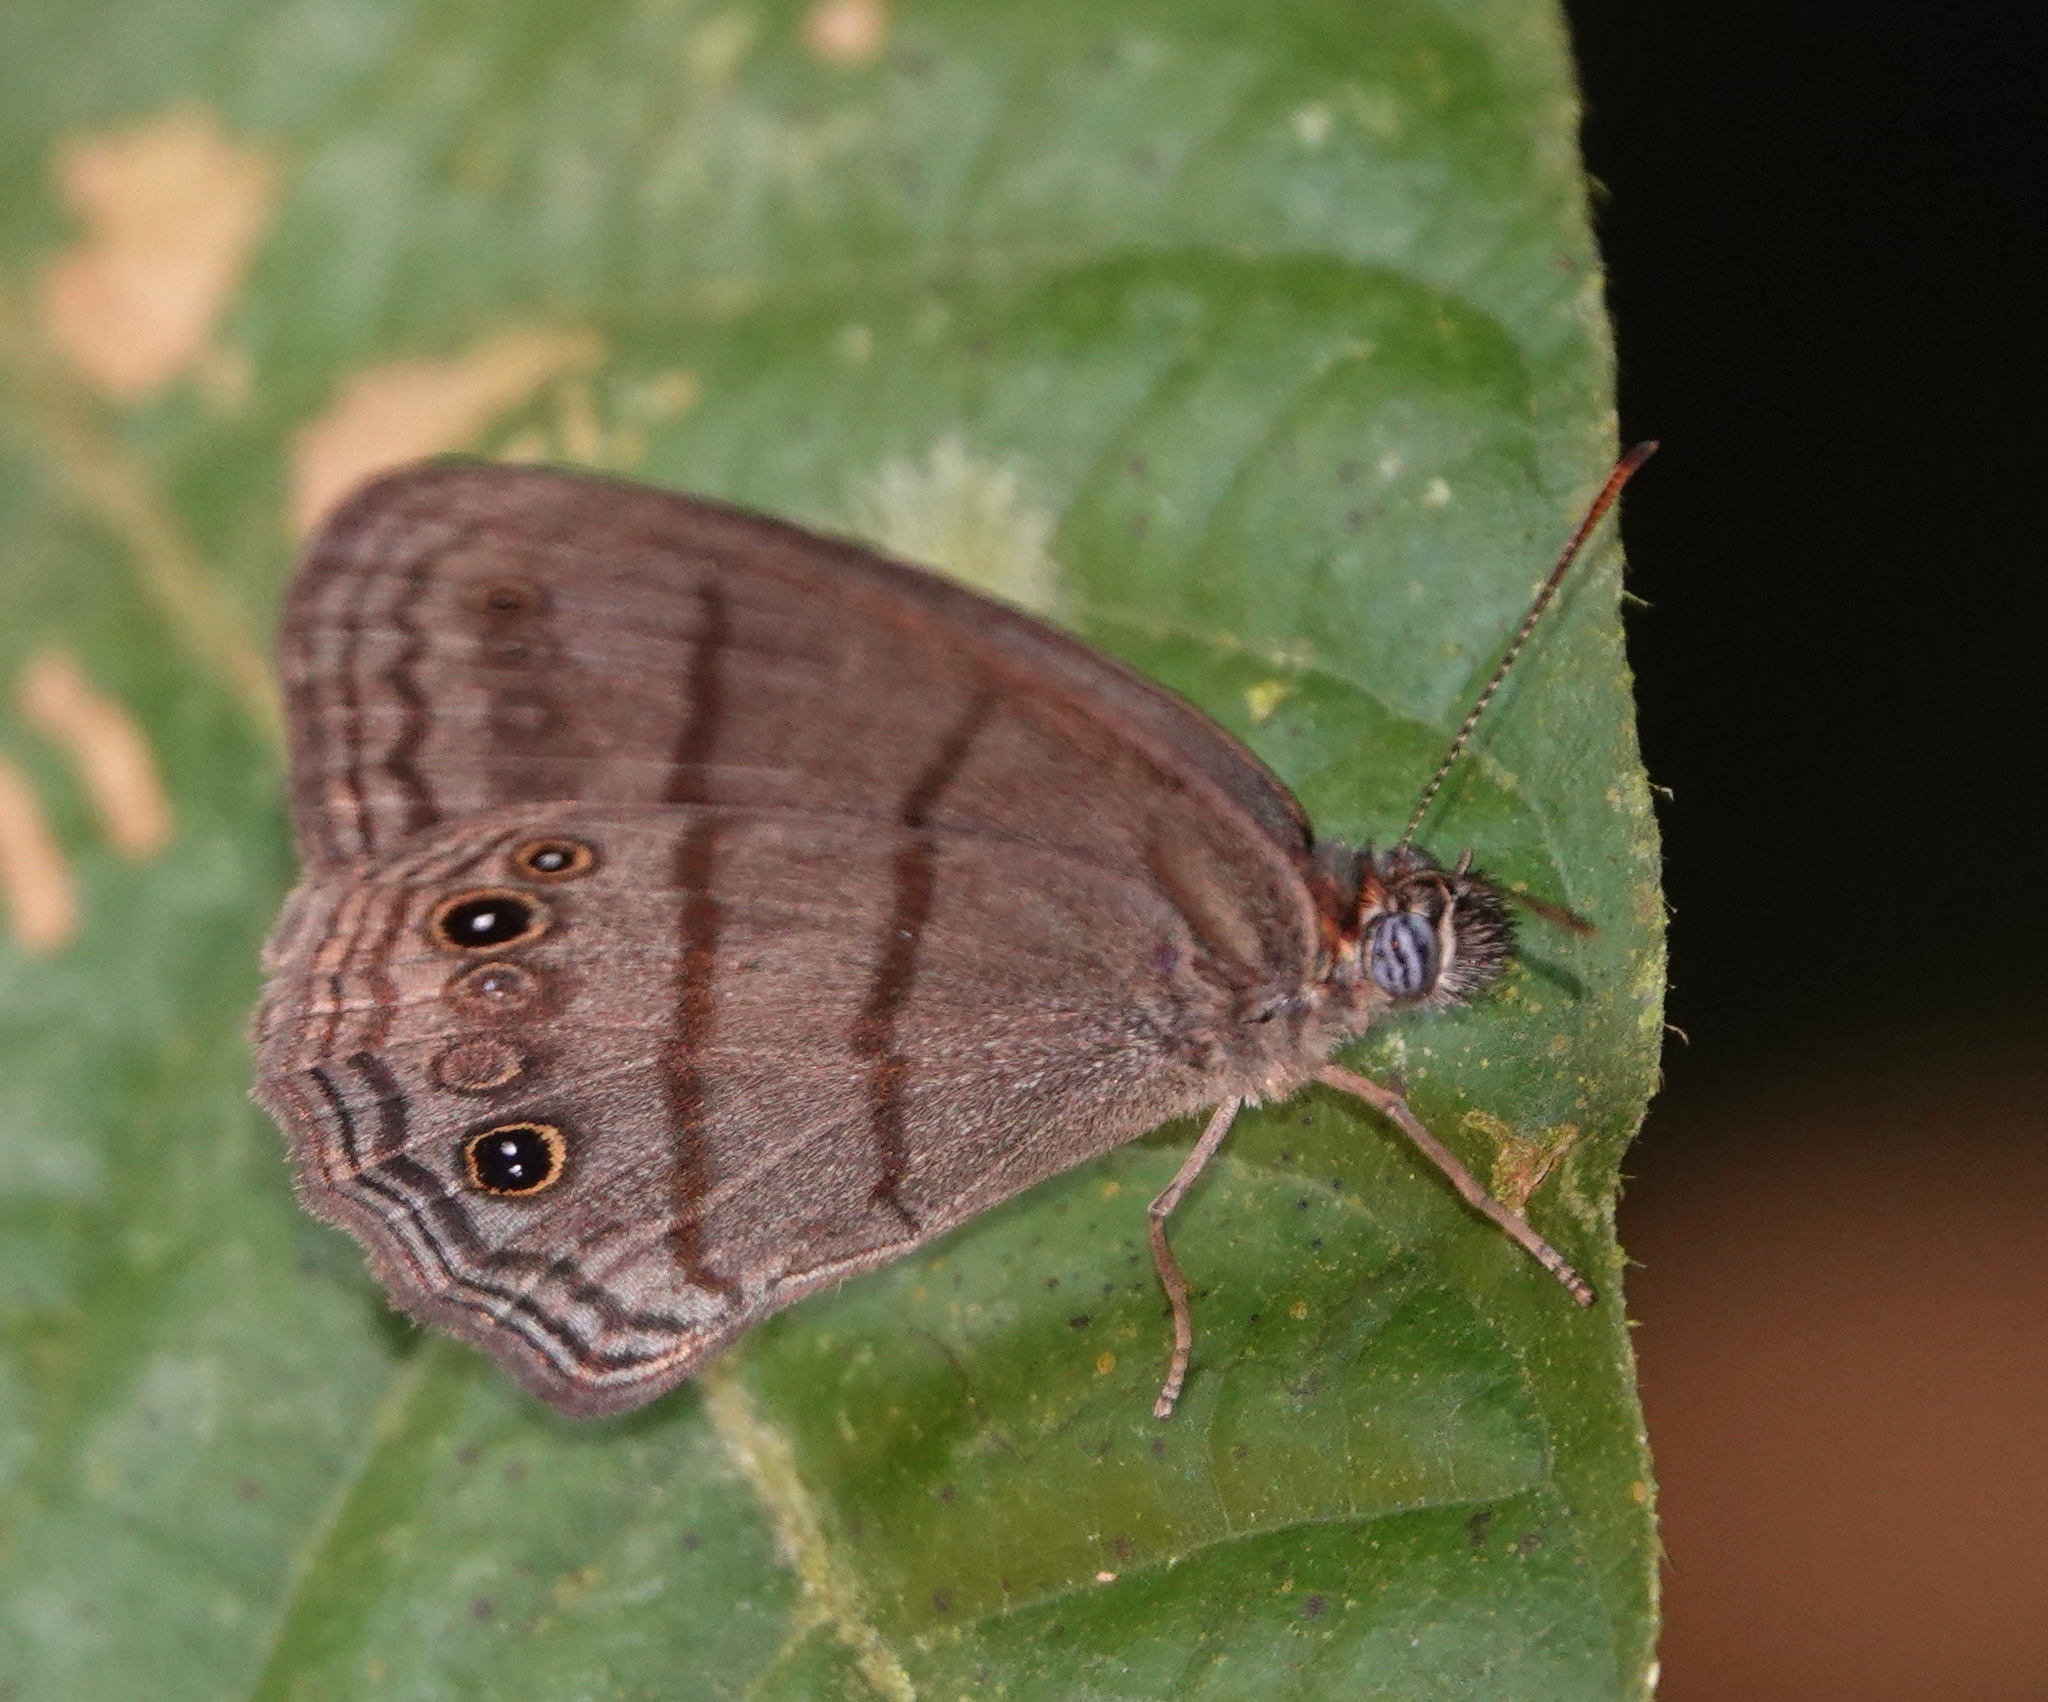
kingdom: Animalia
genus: Modestia
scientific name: Modestia
